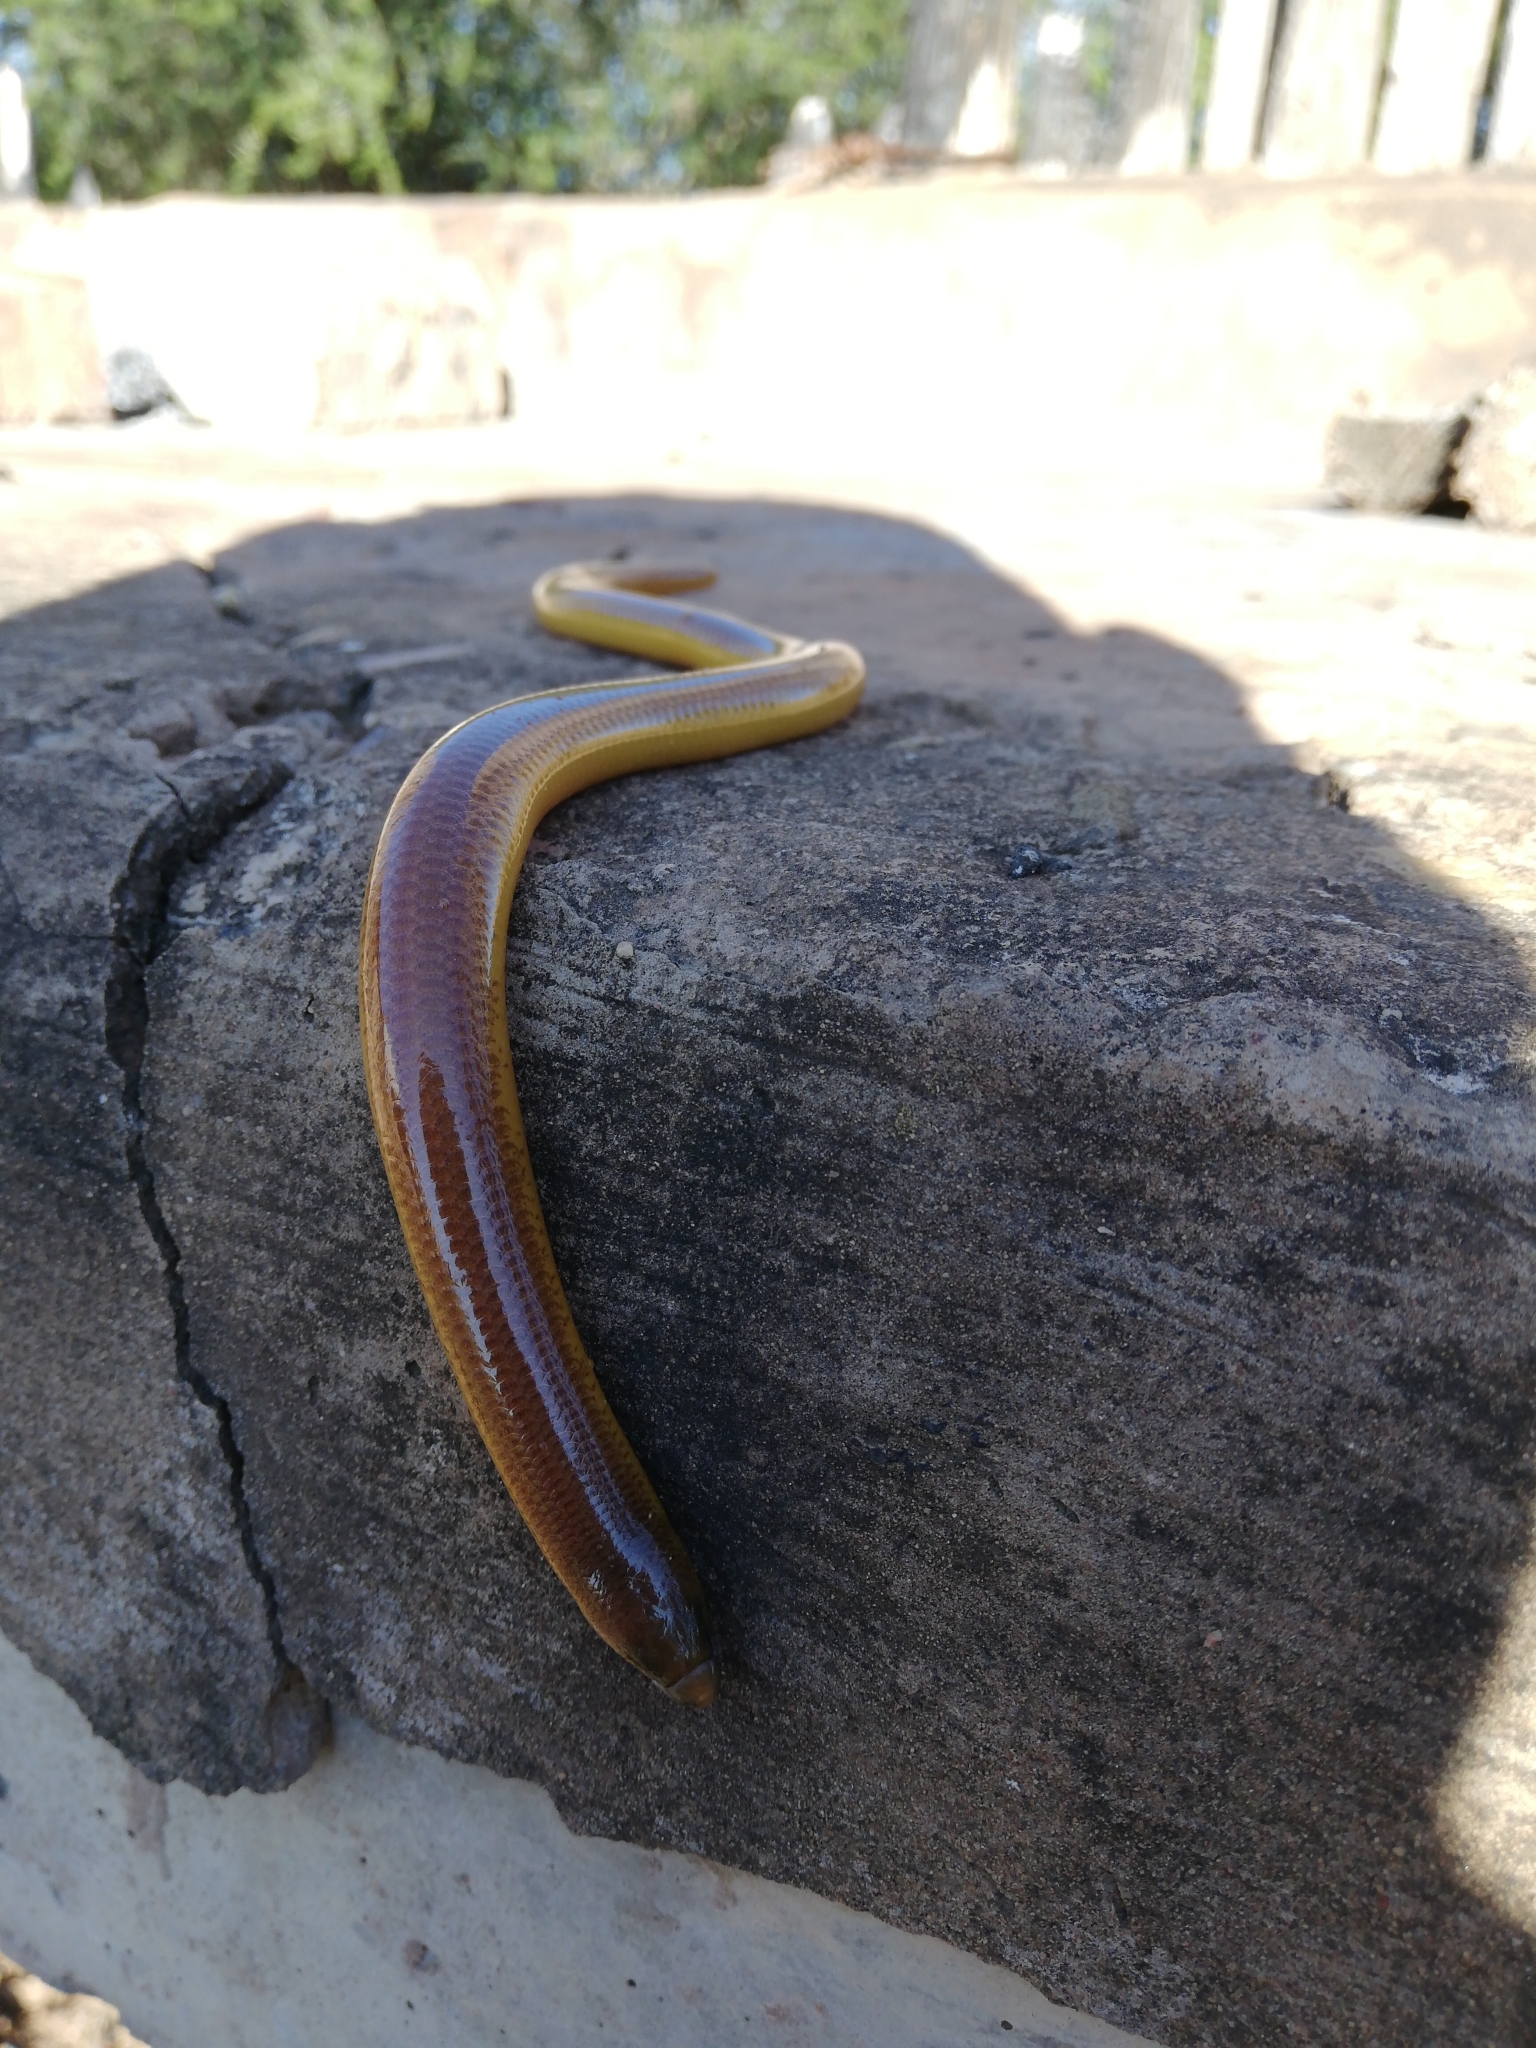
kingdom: Animalia
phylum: Chordata
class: Squamata
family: Scincidae
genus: Acontias
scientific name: Acontias orientalis
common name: Eastern cape legless skink
